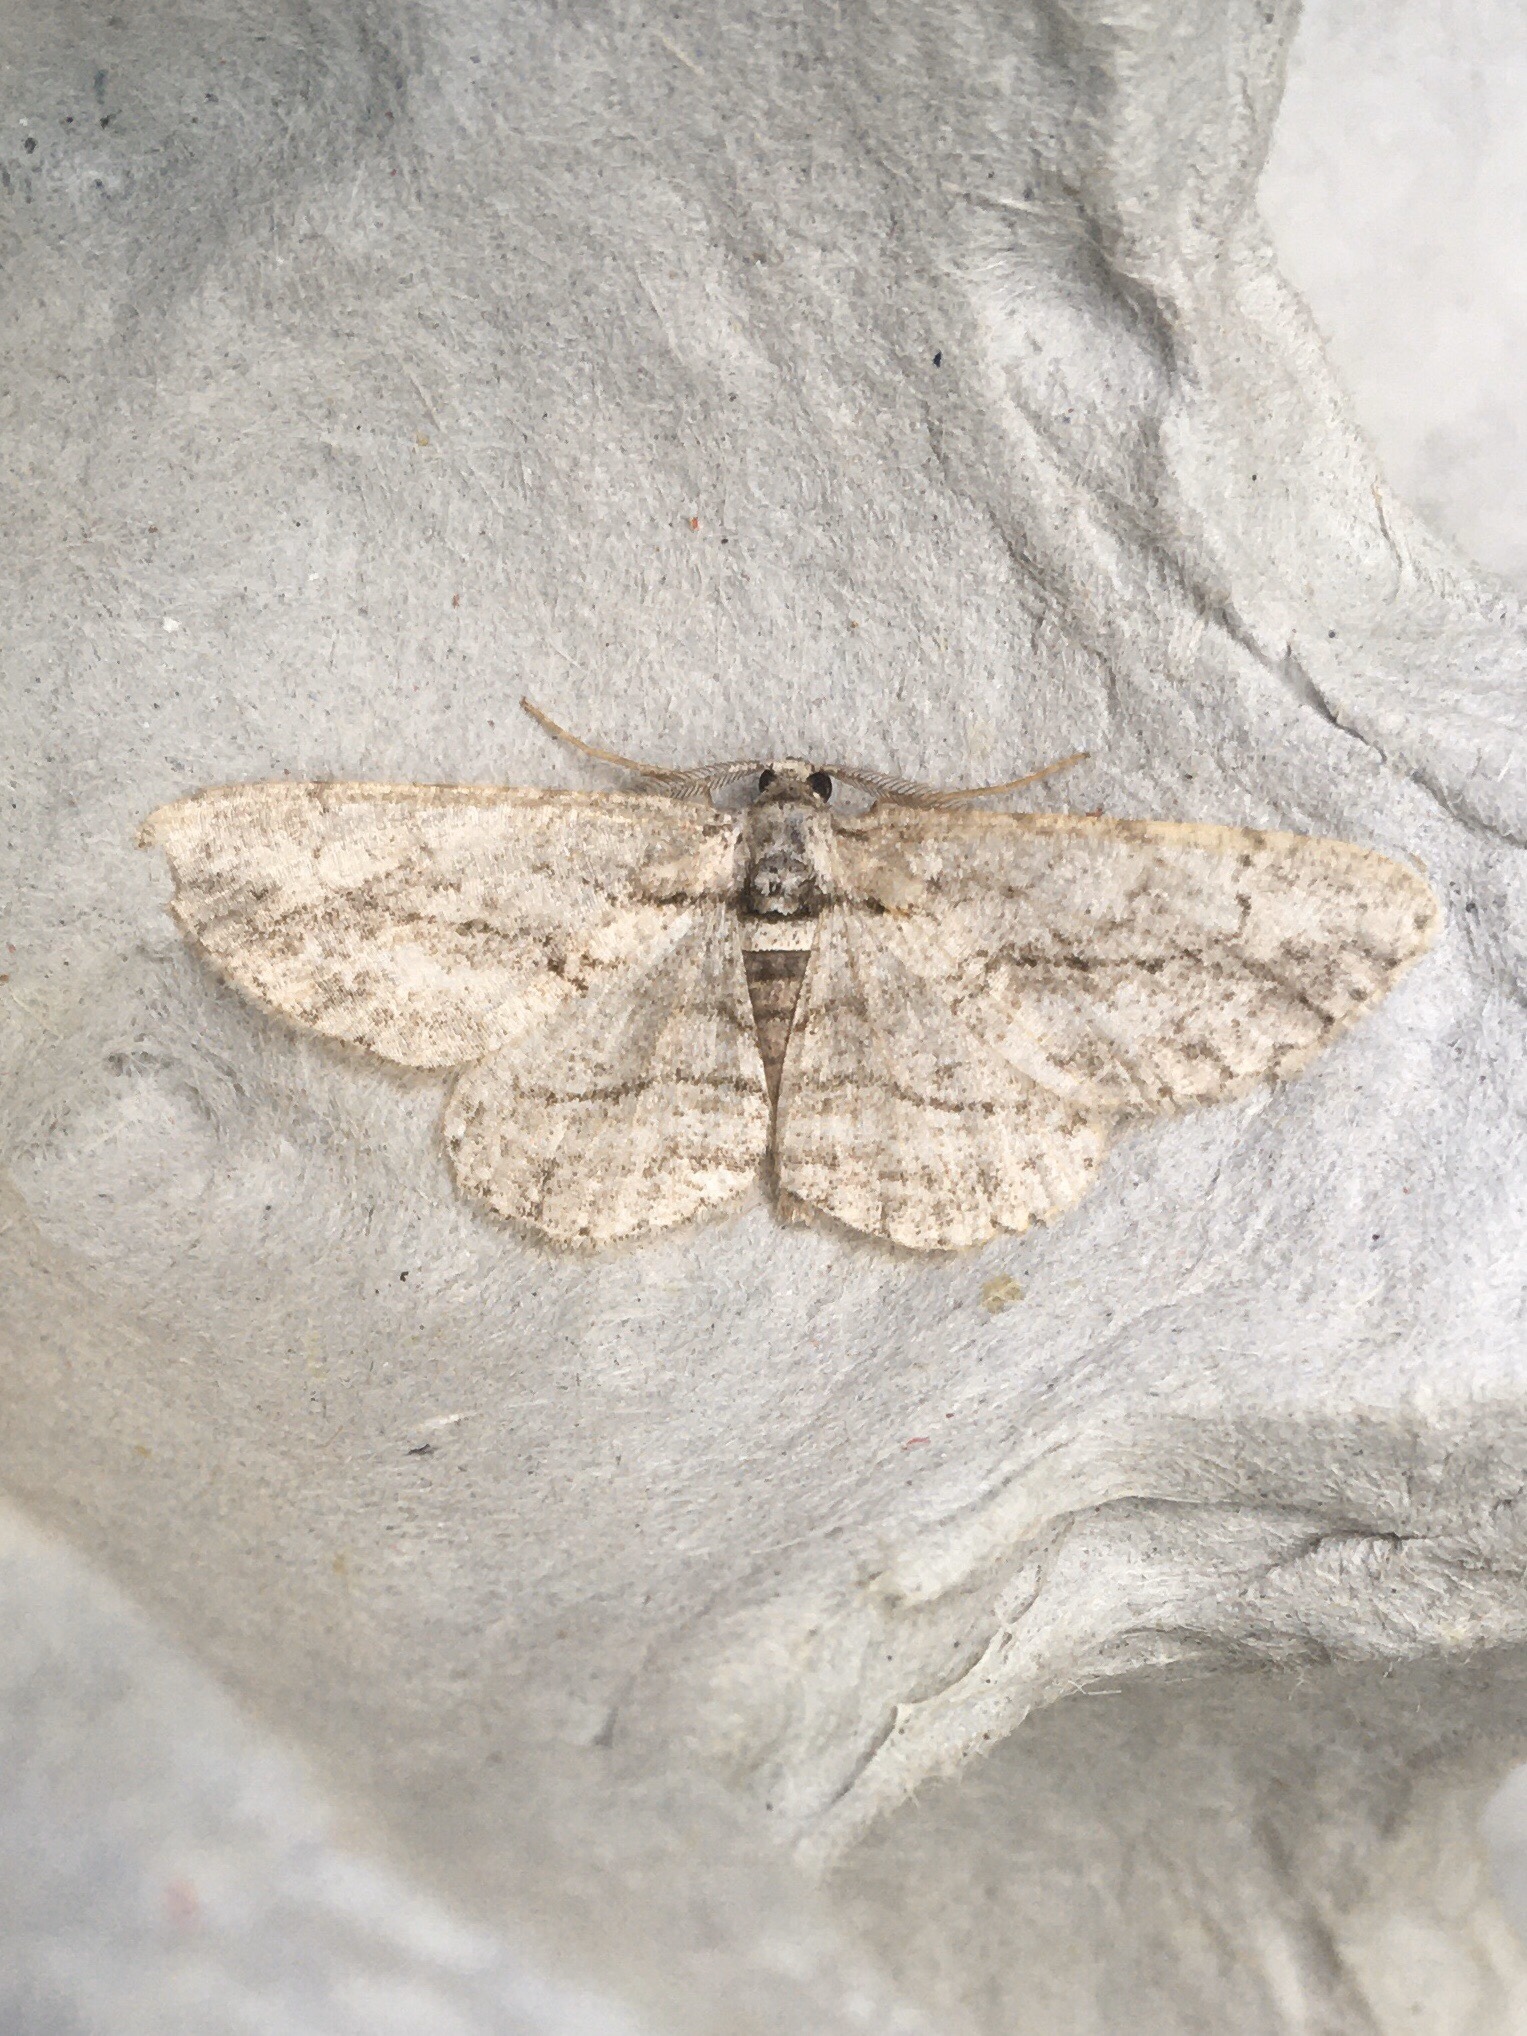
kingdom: Animalia
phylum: Arthropoda
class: Insecta
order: Lepidoptera
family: Geometridae
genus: Anavitrinella
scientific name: Anavitrinella pampinaria
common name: Common gray
